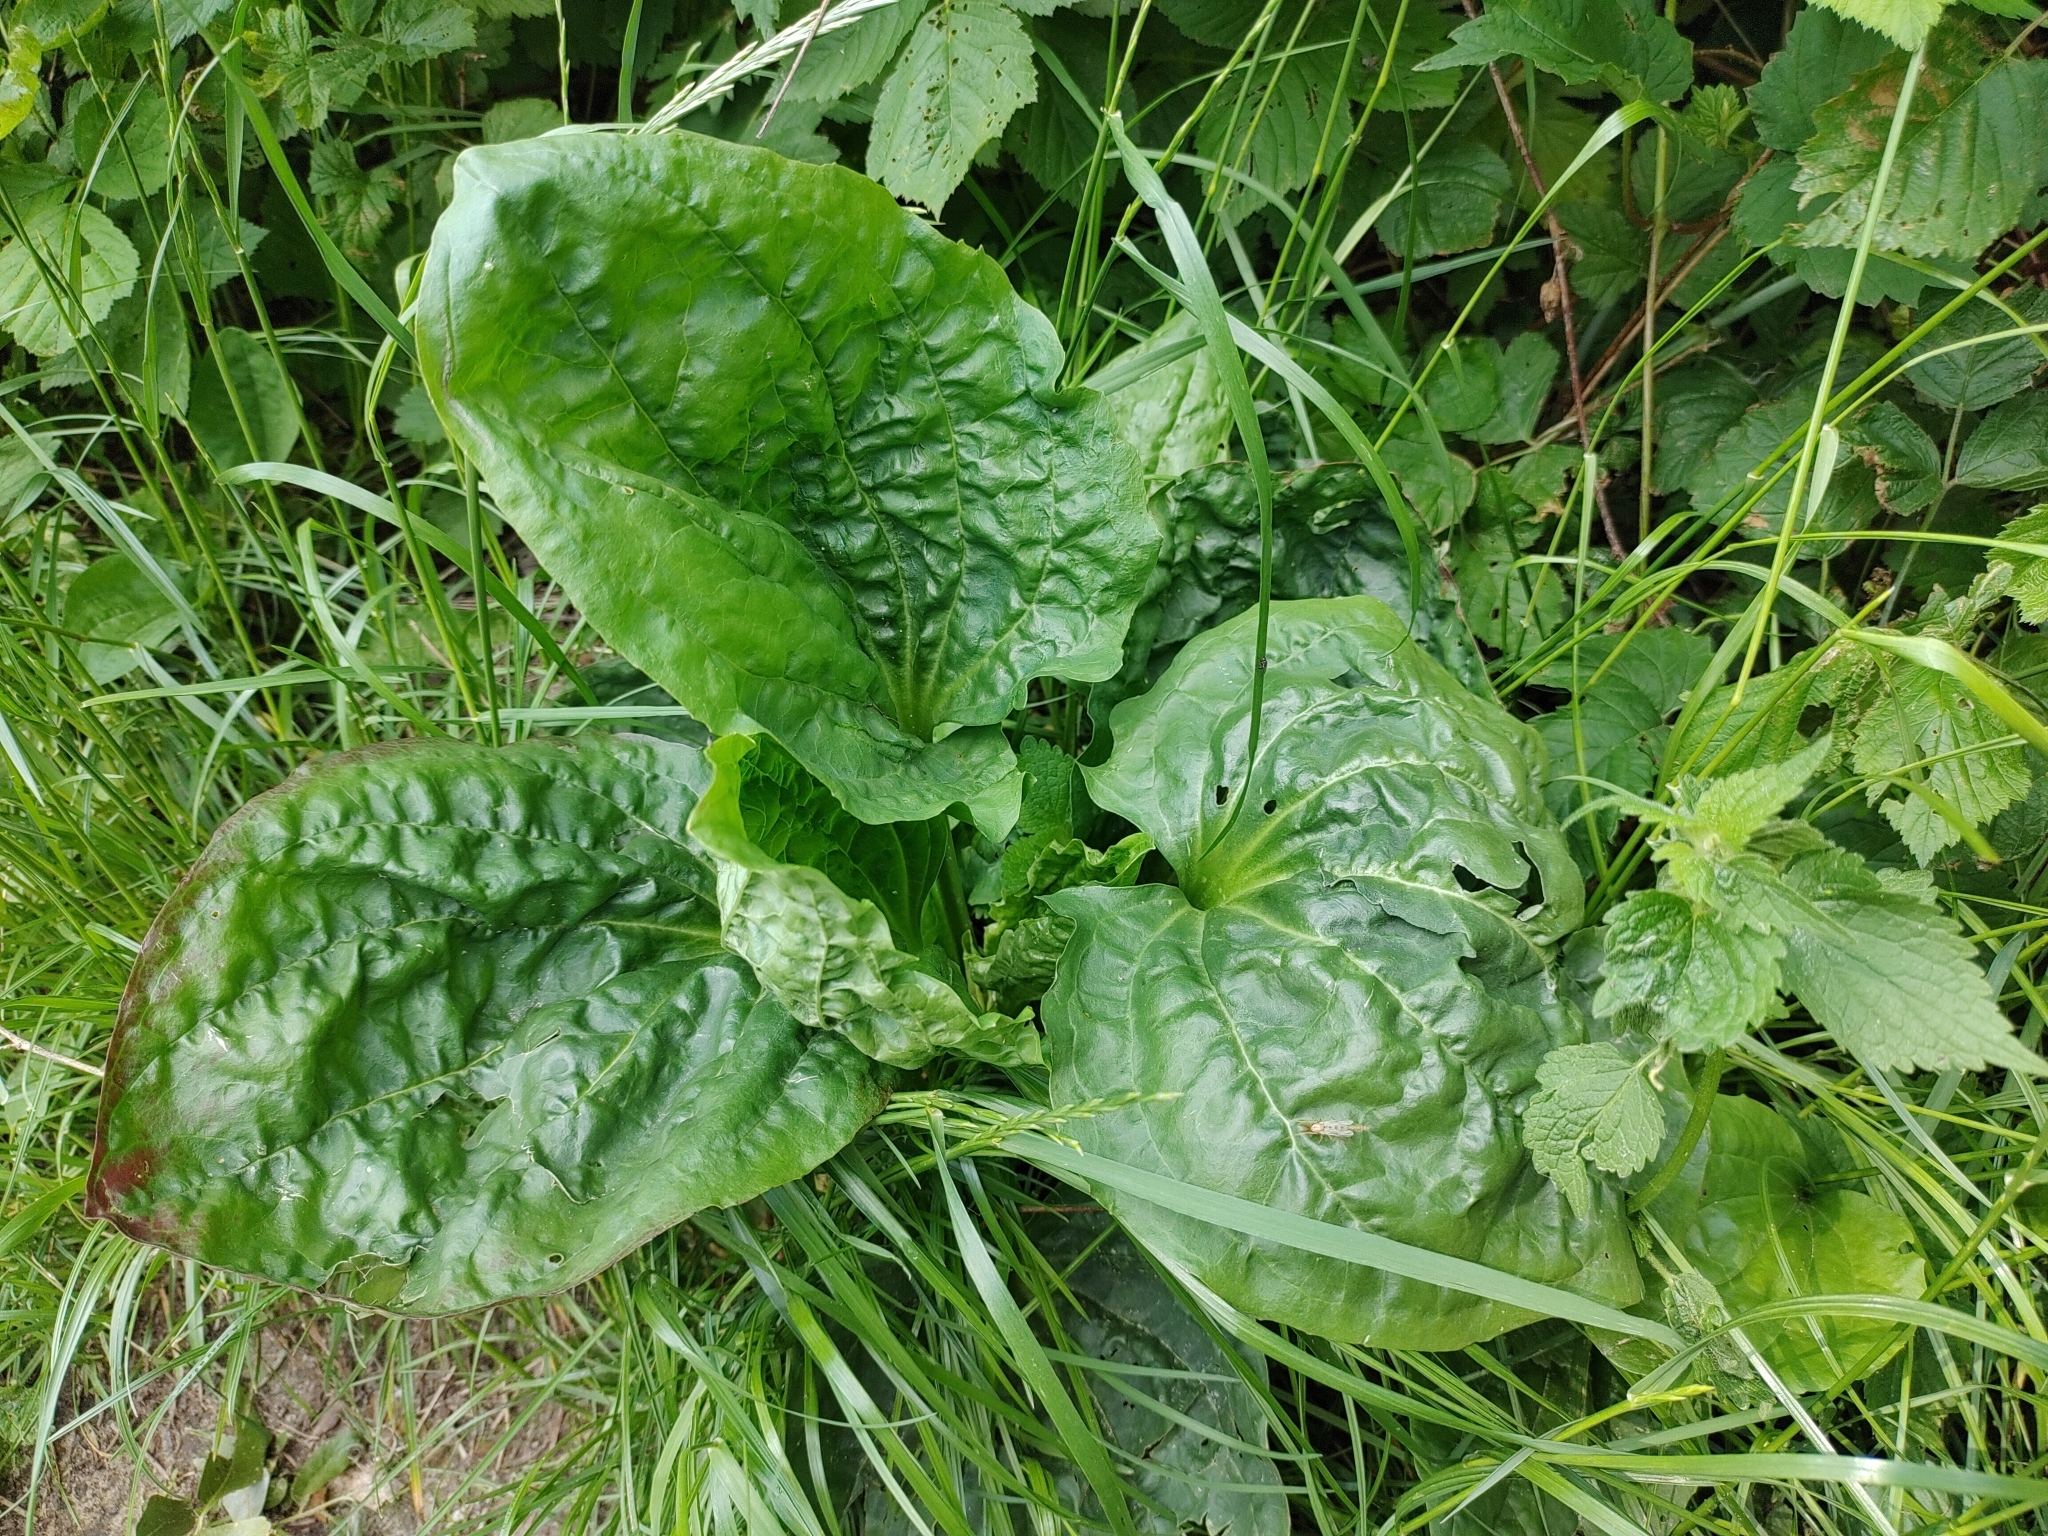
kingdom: Plantae
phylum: Tracheophyta
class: Magnoliopsida
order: Lamiales
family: Plantaginaceae
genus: Plantago
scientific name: Plantago major
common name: Common plantain
